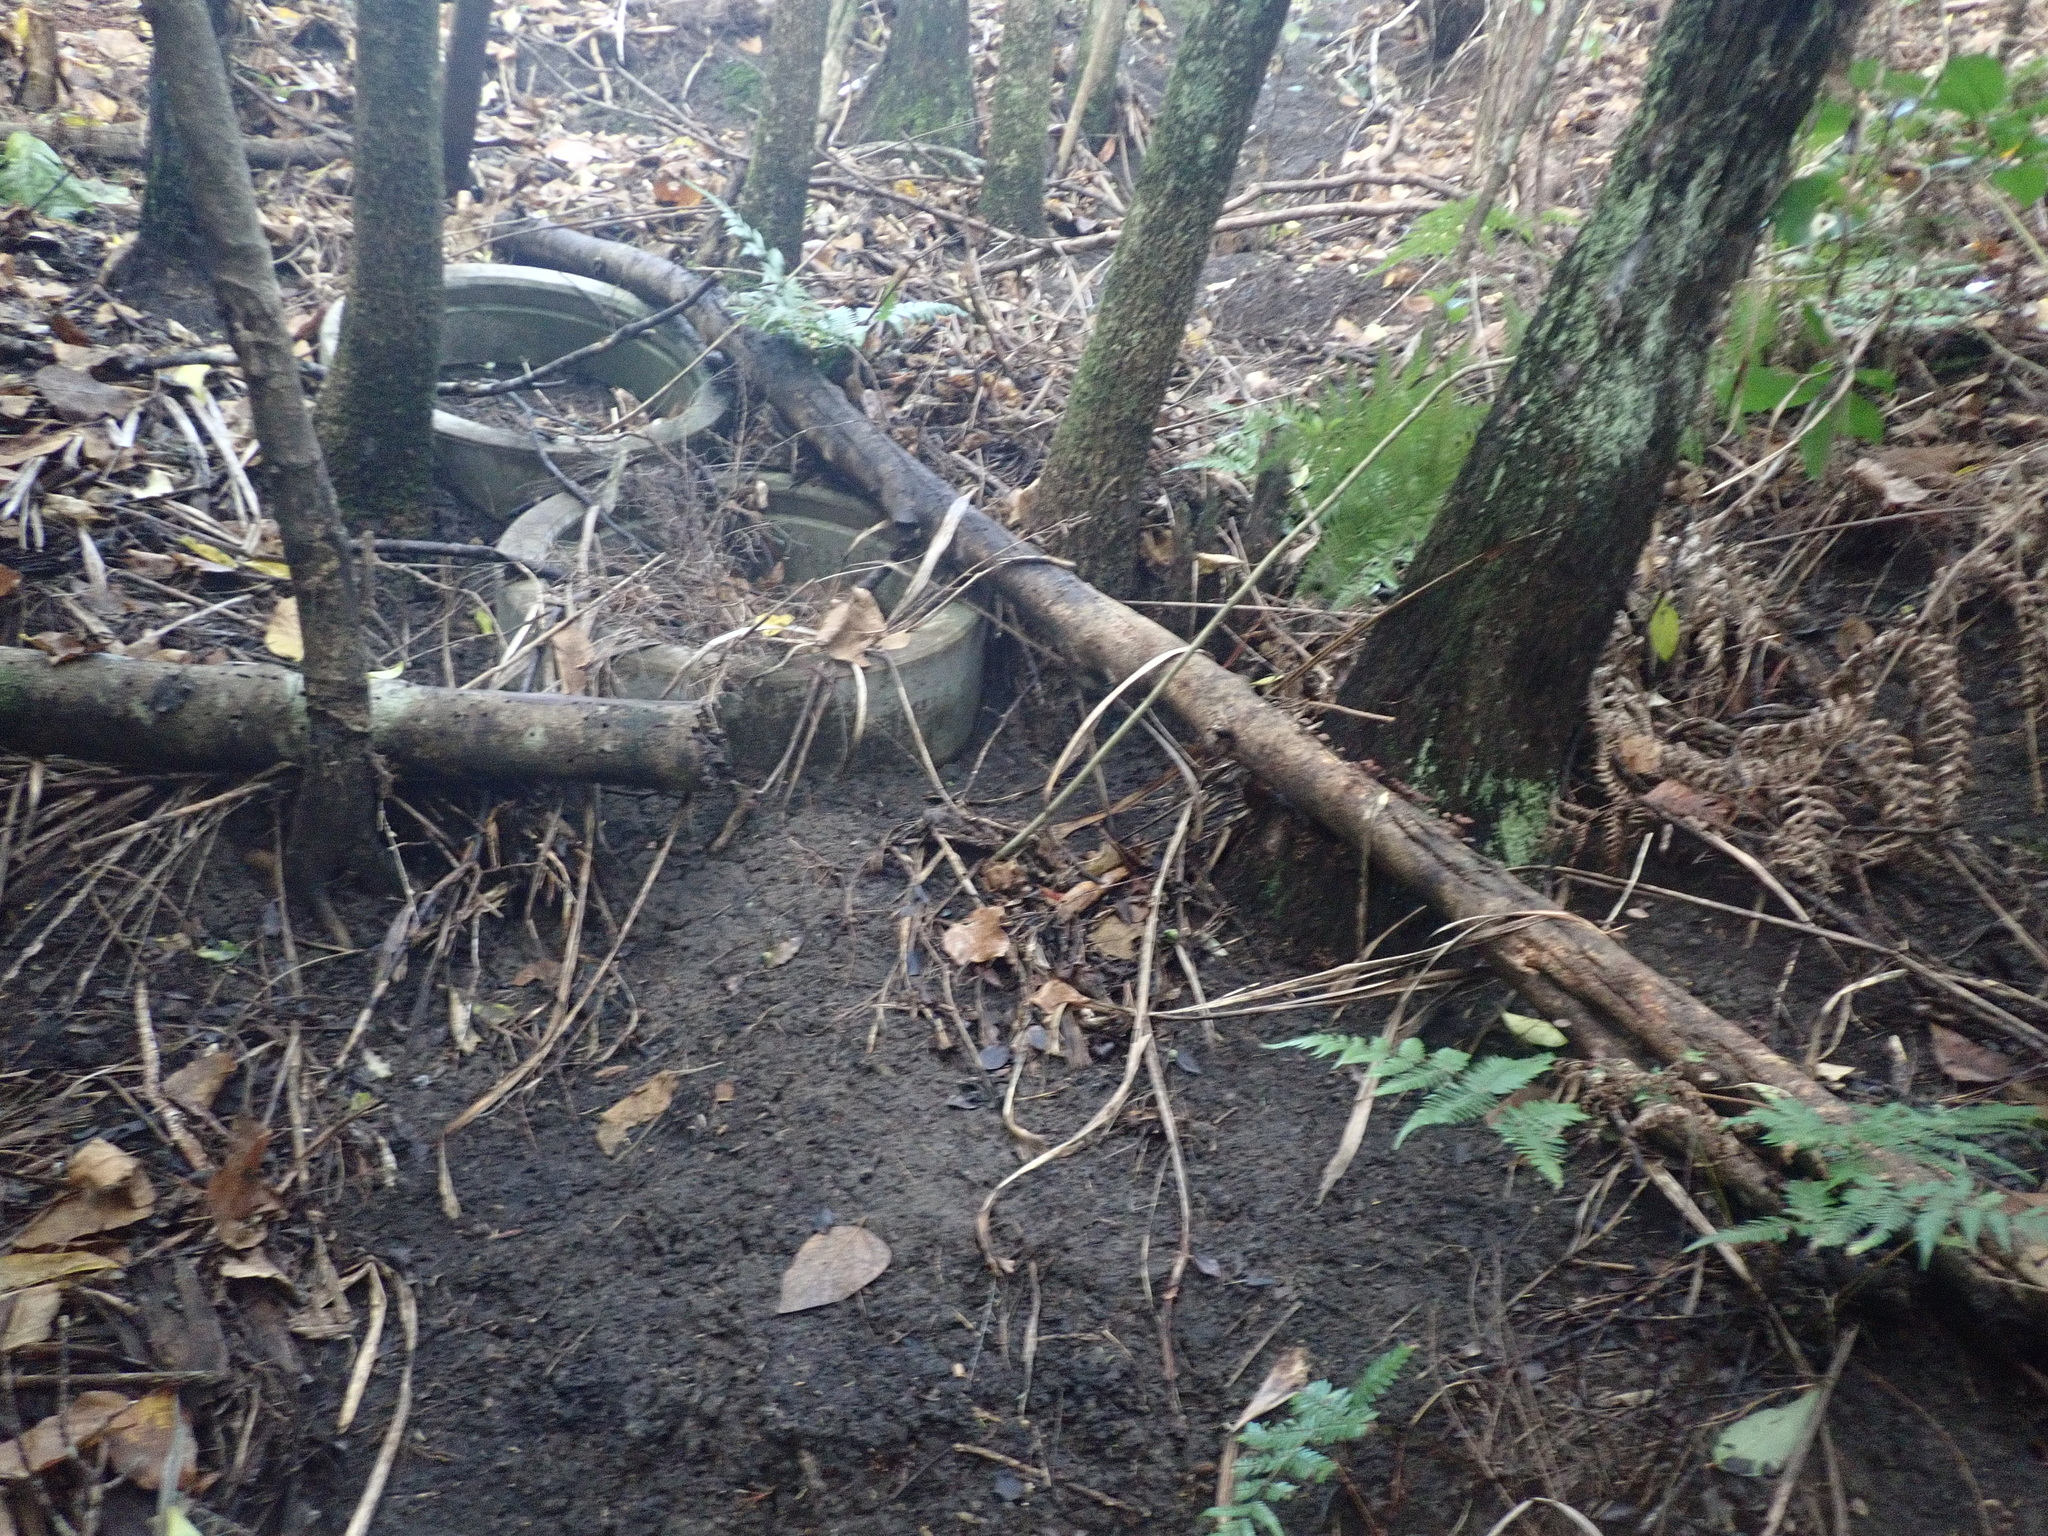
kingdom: Plantae
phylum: Tracheophyta
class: Polypodiopsida
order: Cyatheales
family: Cyatheaceae
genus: Alsophila
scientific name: Alsophila dealbata
